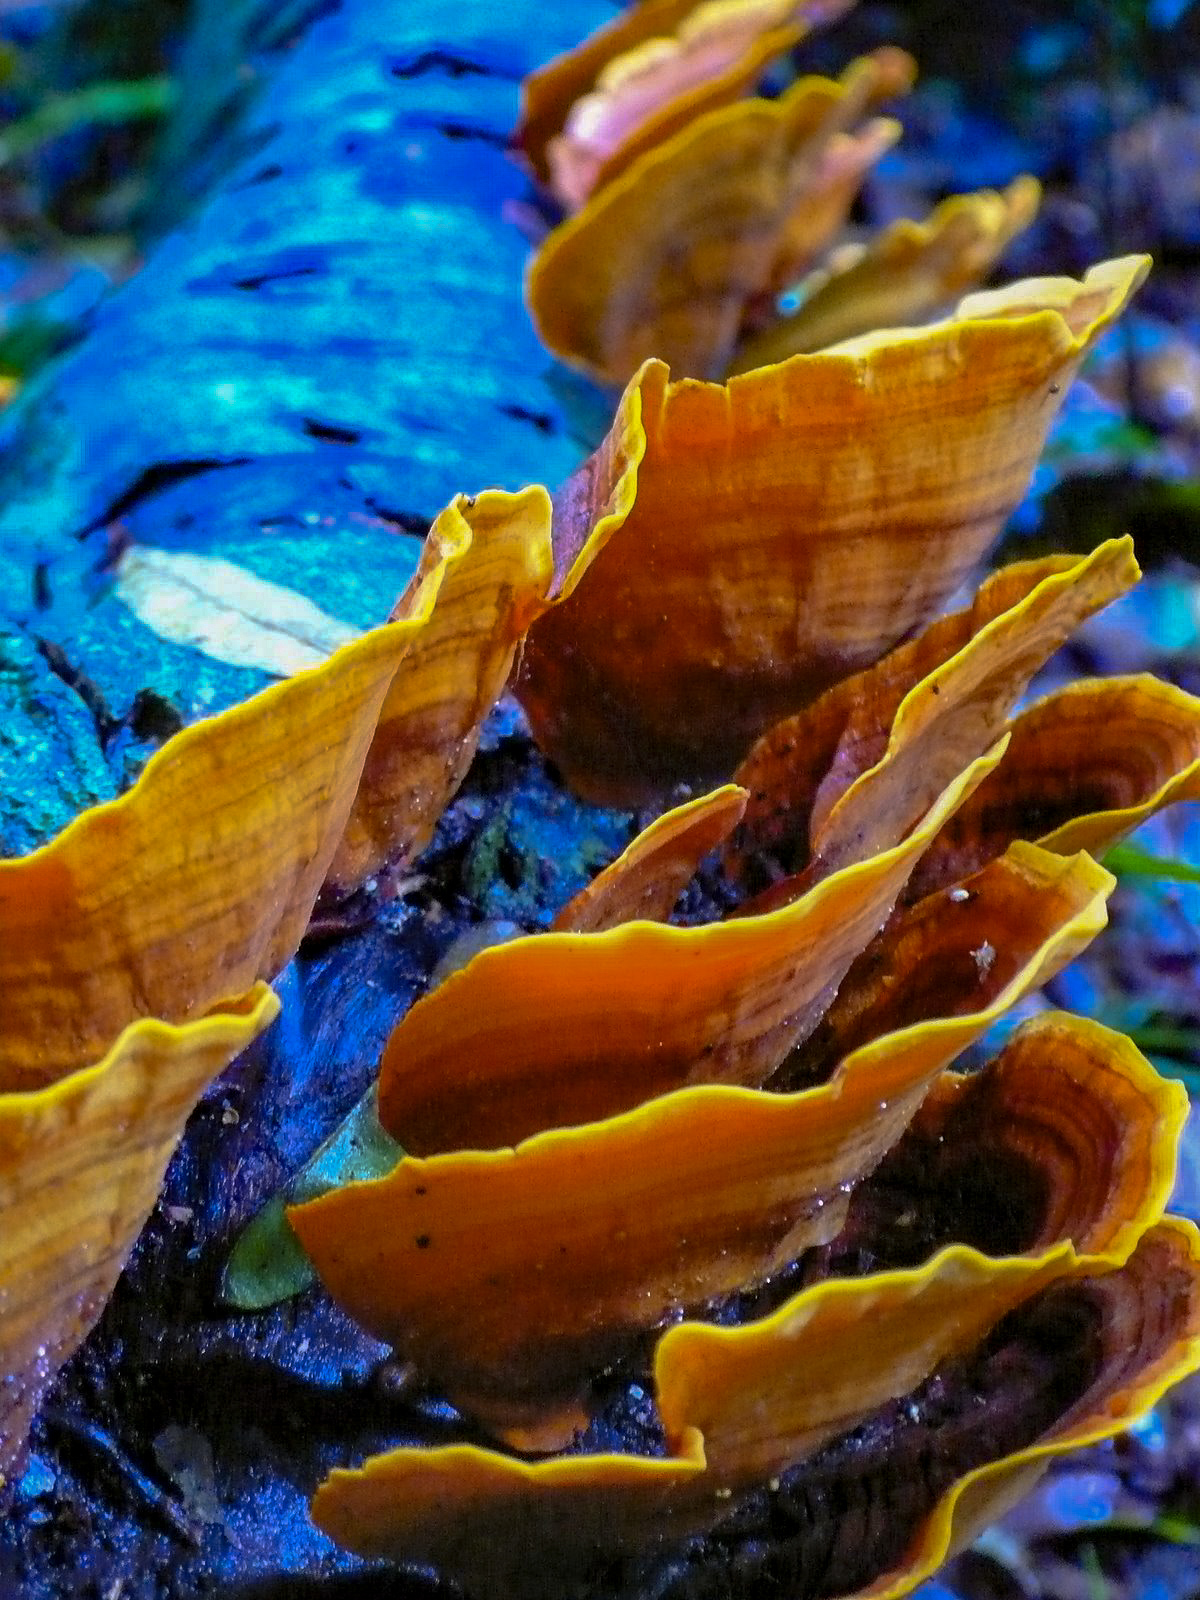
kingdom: Fungi
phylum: Basidiomycota
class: Agaricomycetes
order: Russulales
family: Stereaceae
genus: Stereum
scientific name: Stereum ostrea
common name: False turkeytail
